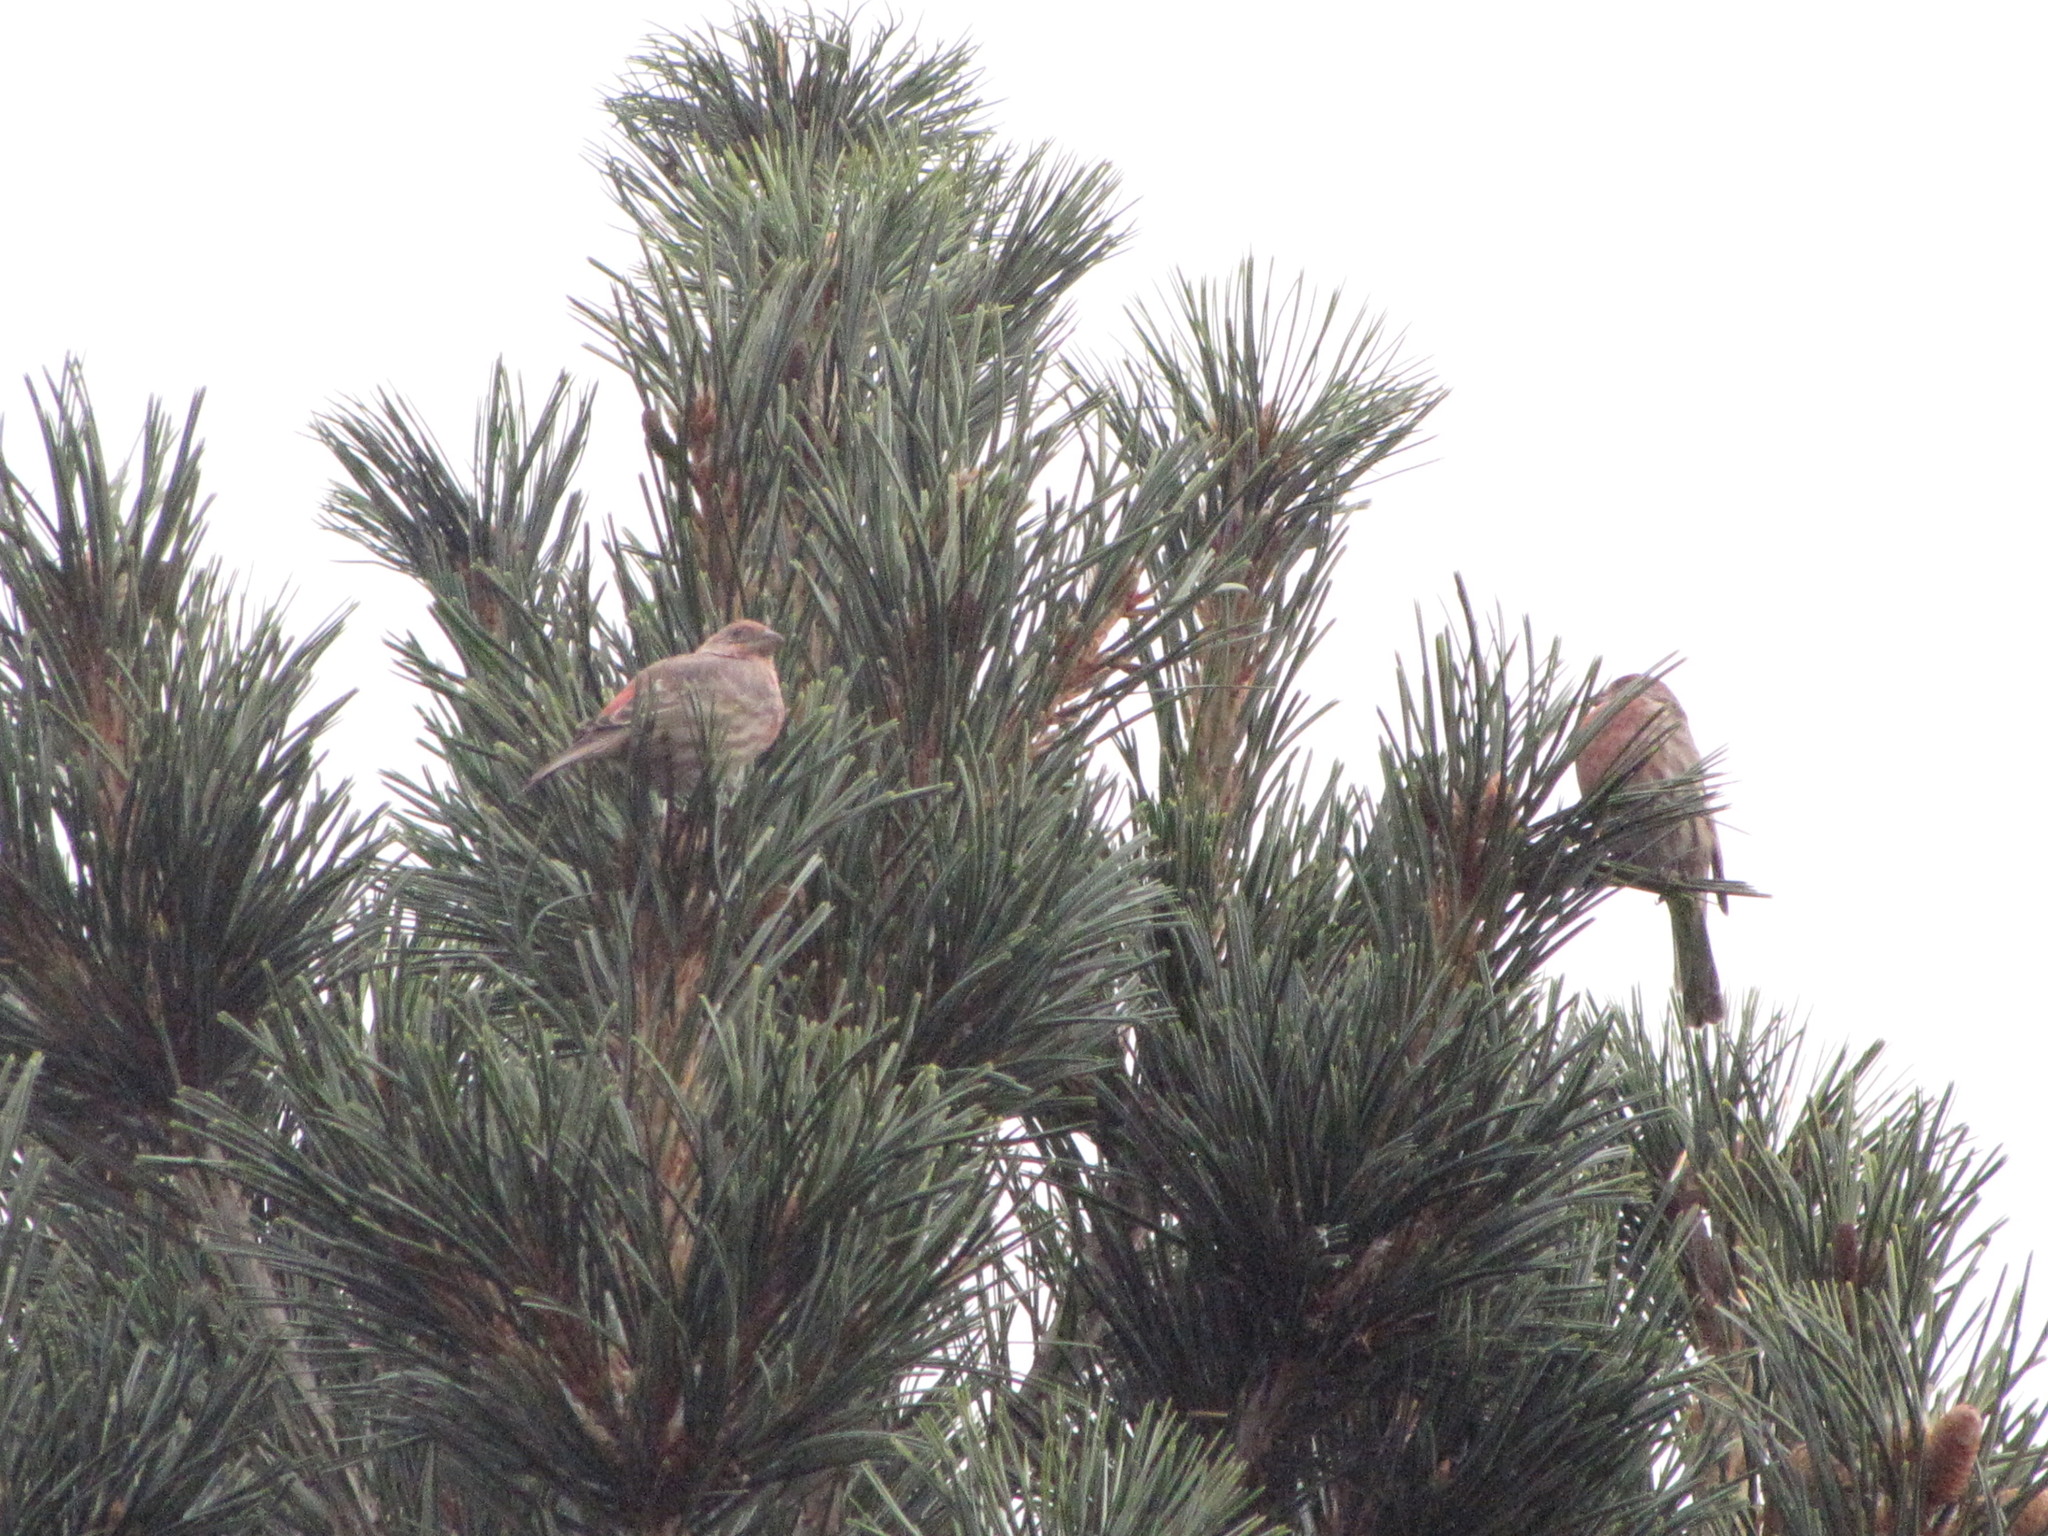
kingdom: Animalia
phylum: Chordata
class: Aves
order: Passeriformes
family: Fringillidae
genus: Haemorhous
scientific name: Haemorhous mexicanus
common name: House finch
